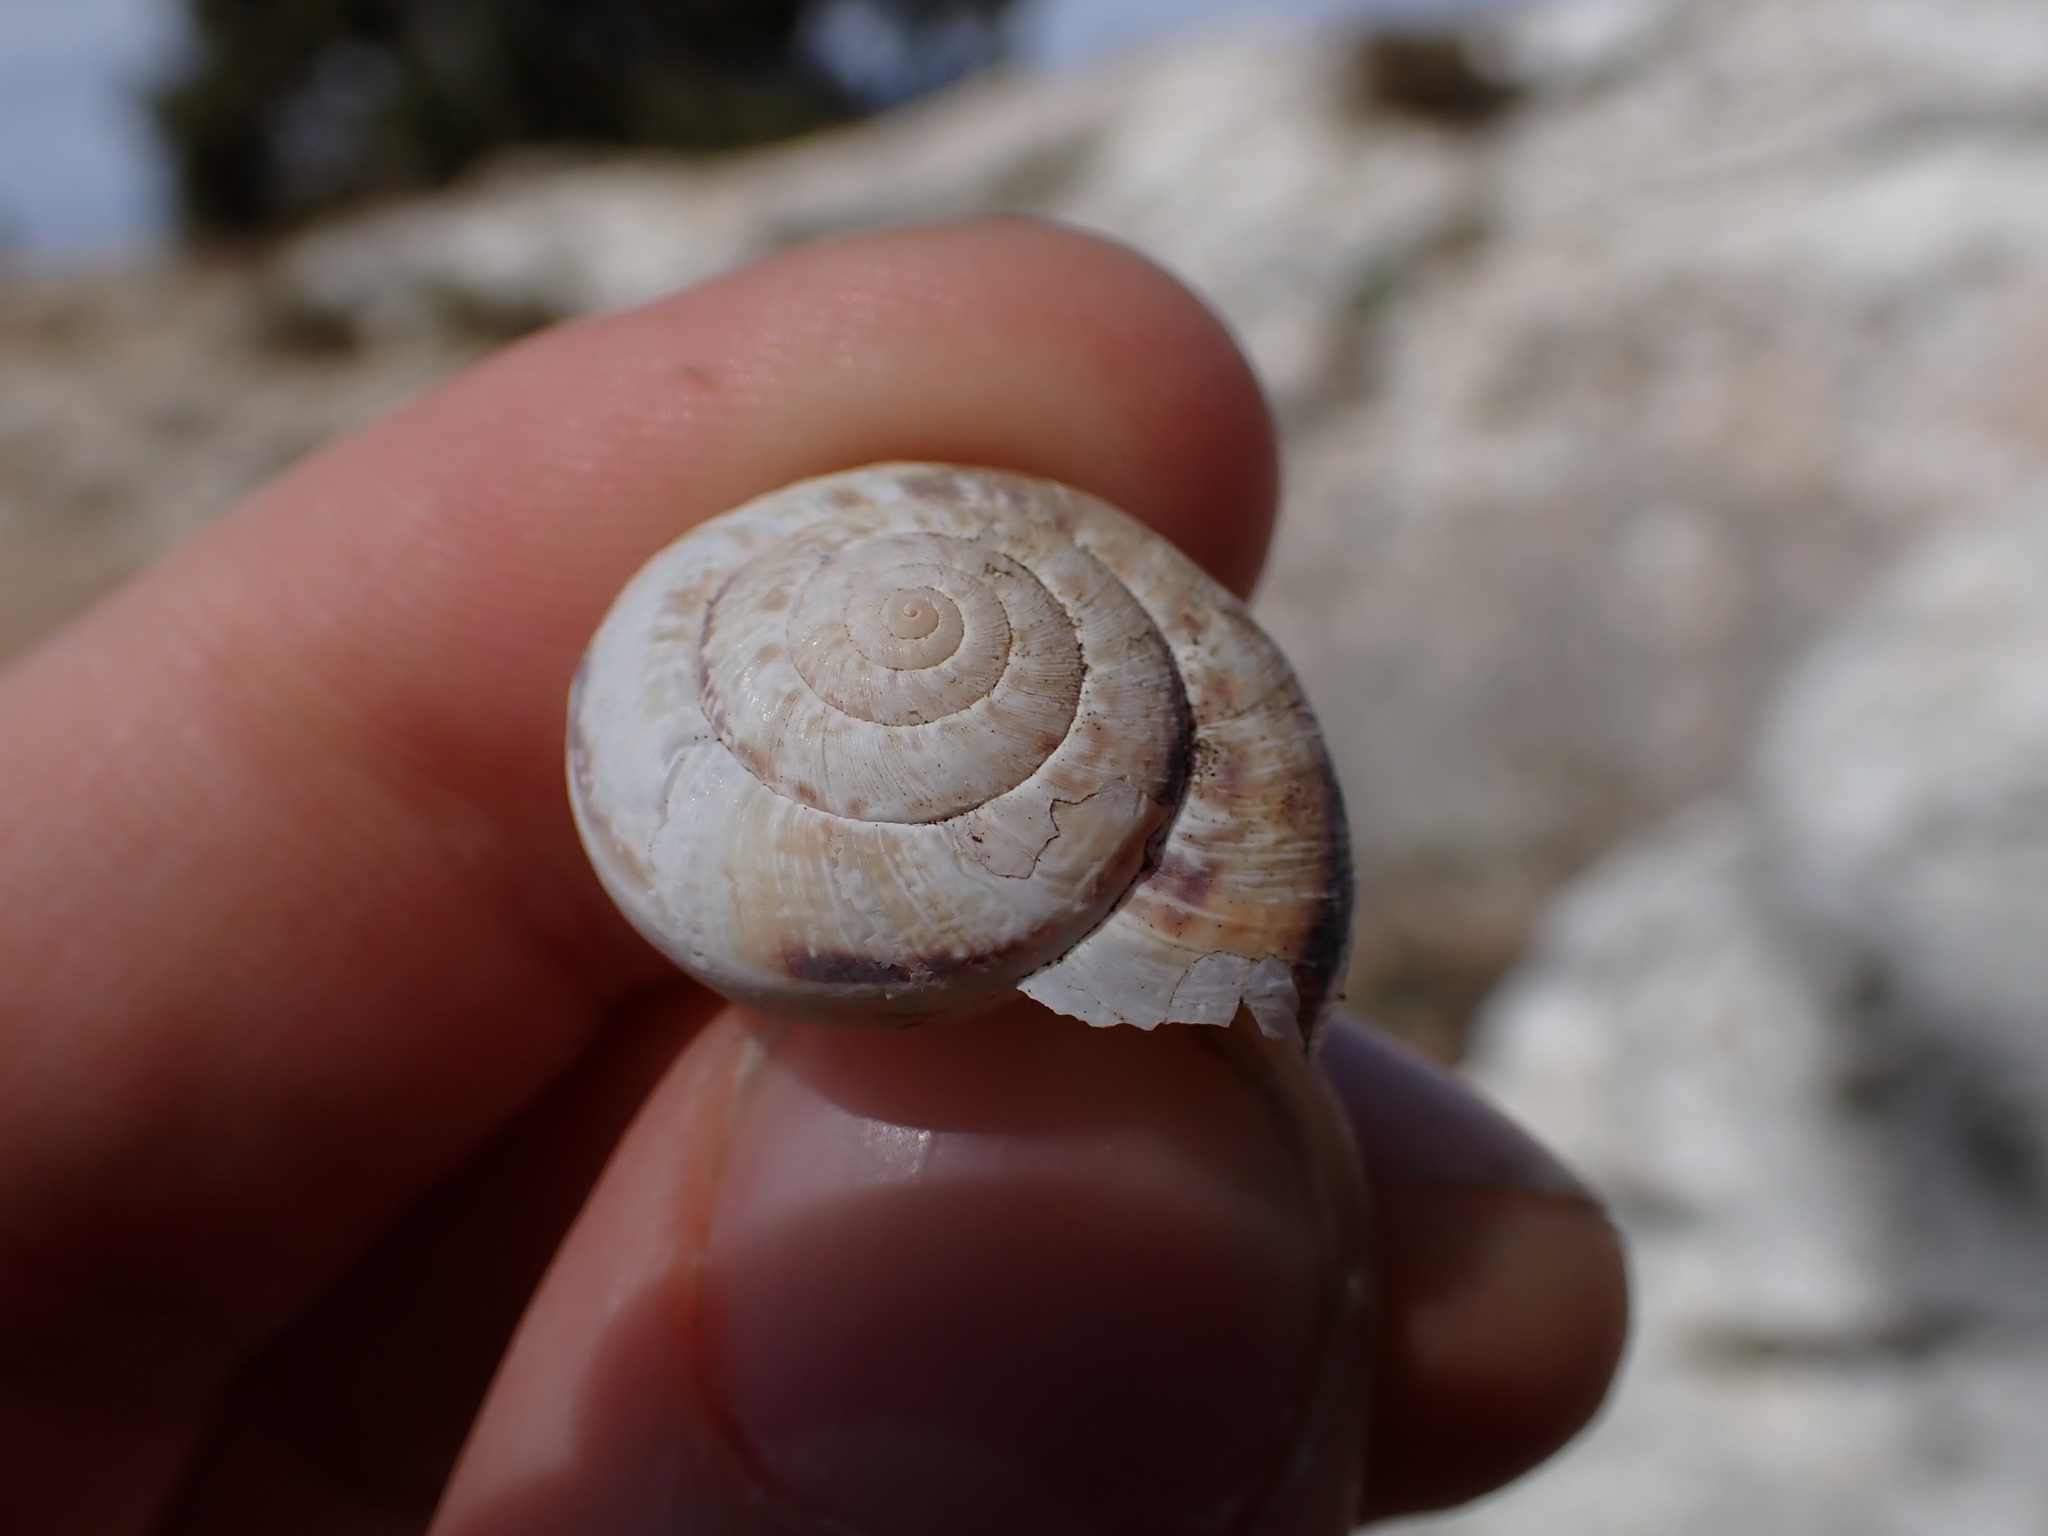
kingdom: Animalia
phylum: Mollusca
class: Gastropoda
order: Stylommatophora
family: Geomitridae
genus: Xerosecta
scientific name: Xerosecta cespitum
